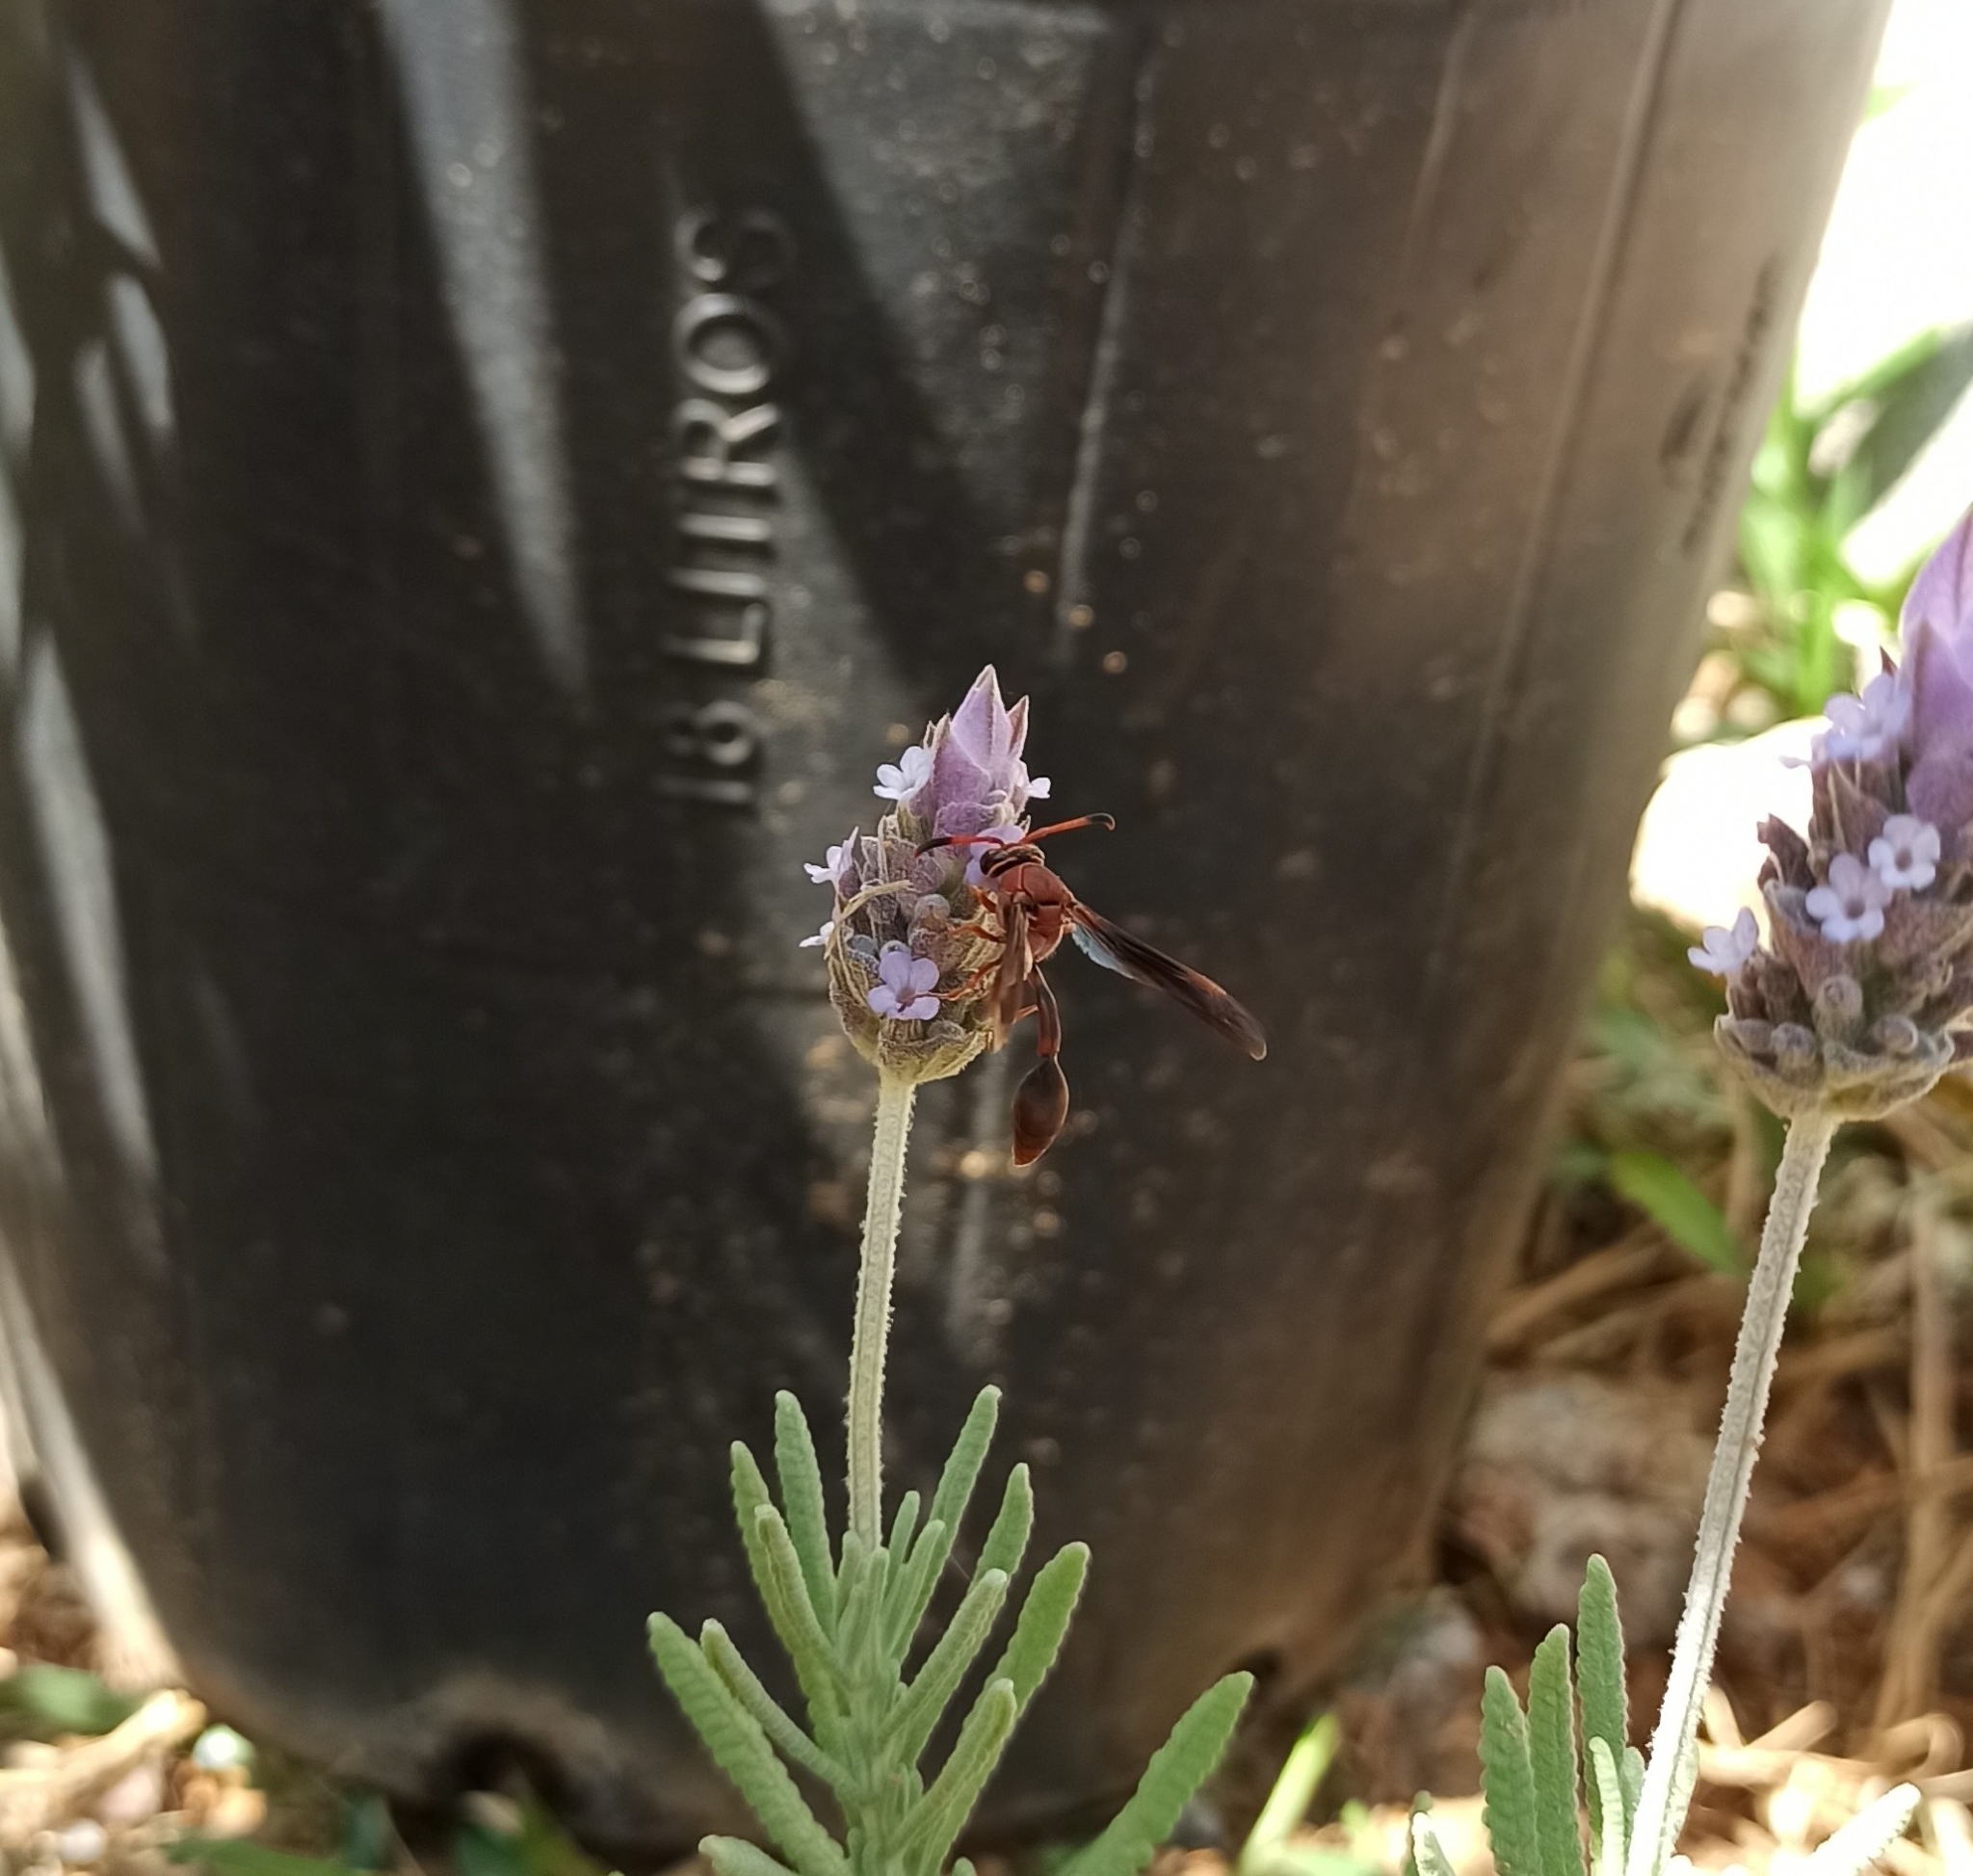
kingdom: Animalia
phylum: Arthropoda
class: Insecta
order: Hymenoptera
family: Eumenidae
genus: Zeta
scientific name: Zeta argillaceum
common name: Potter wasp
